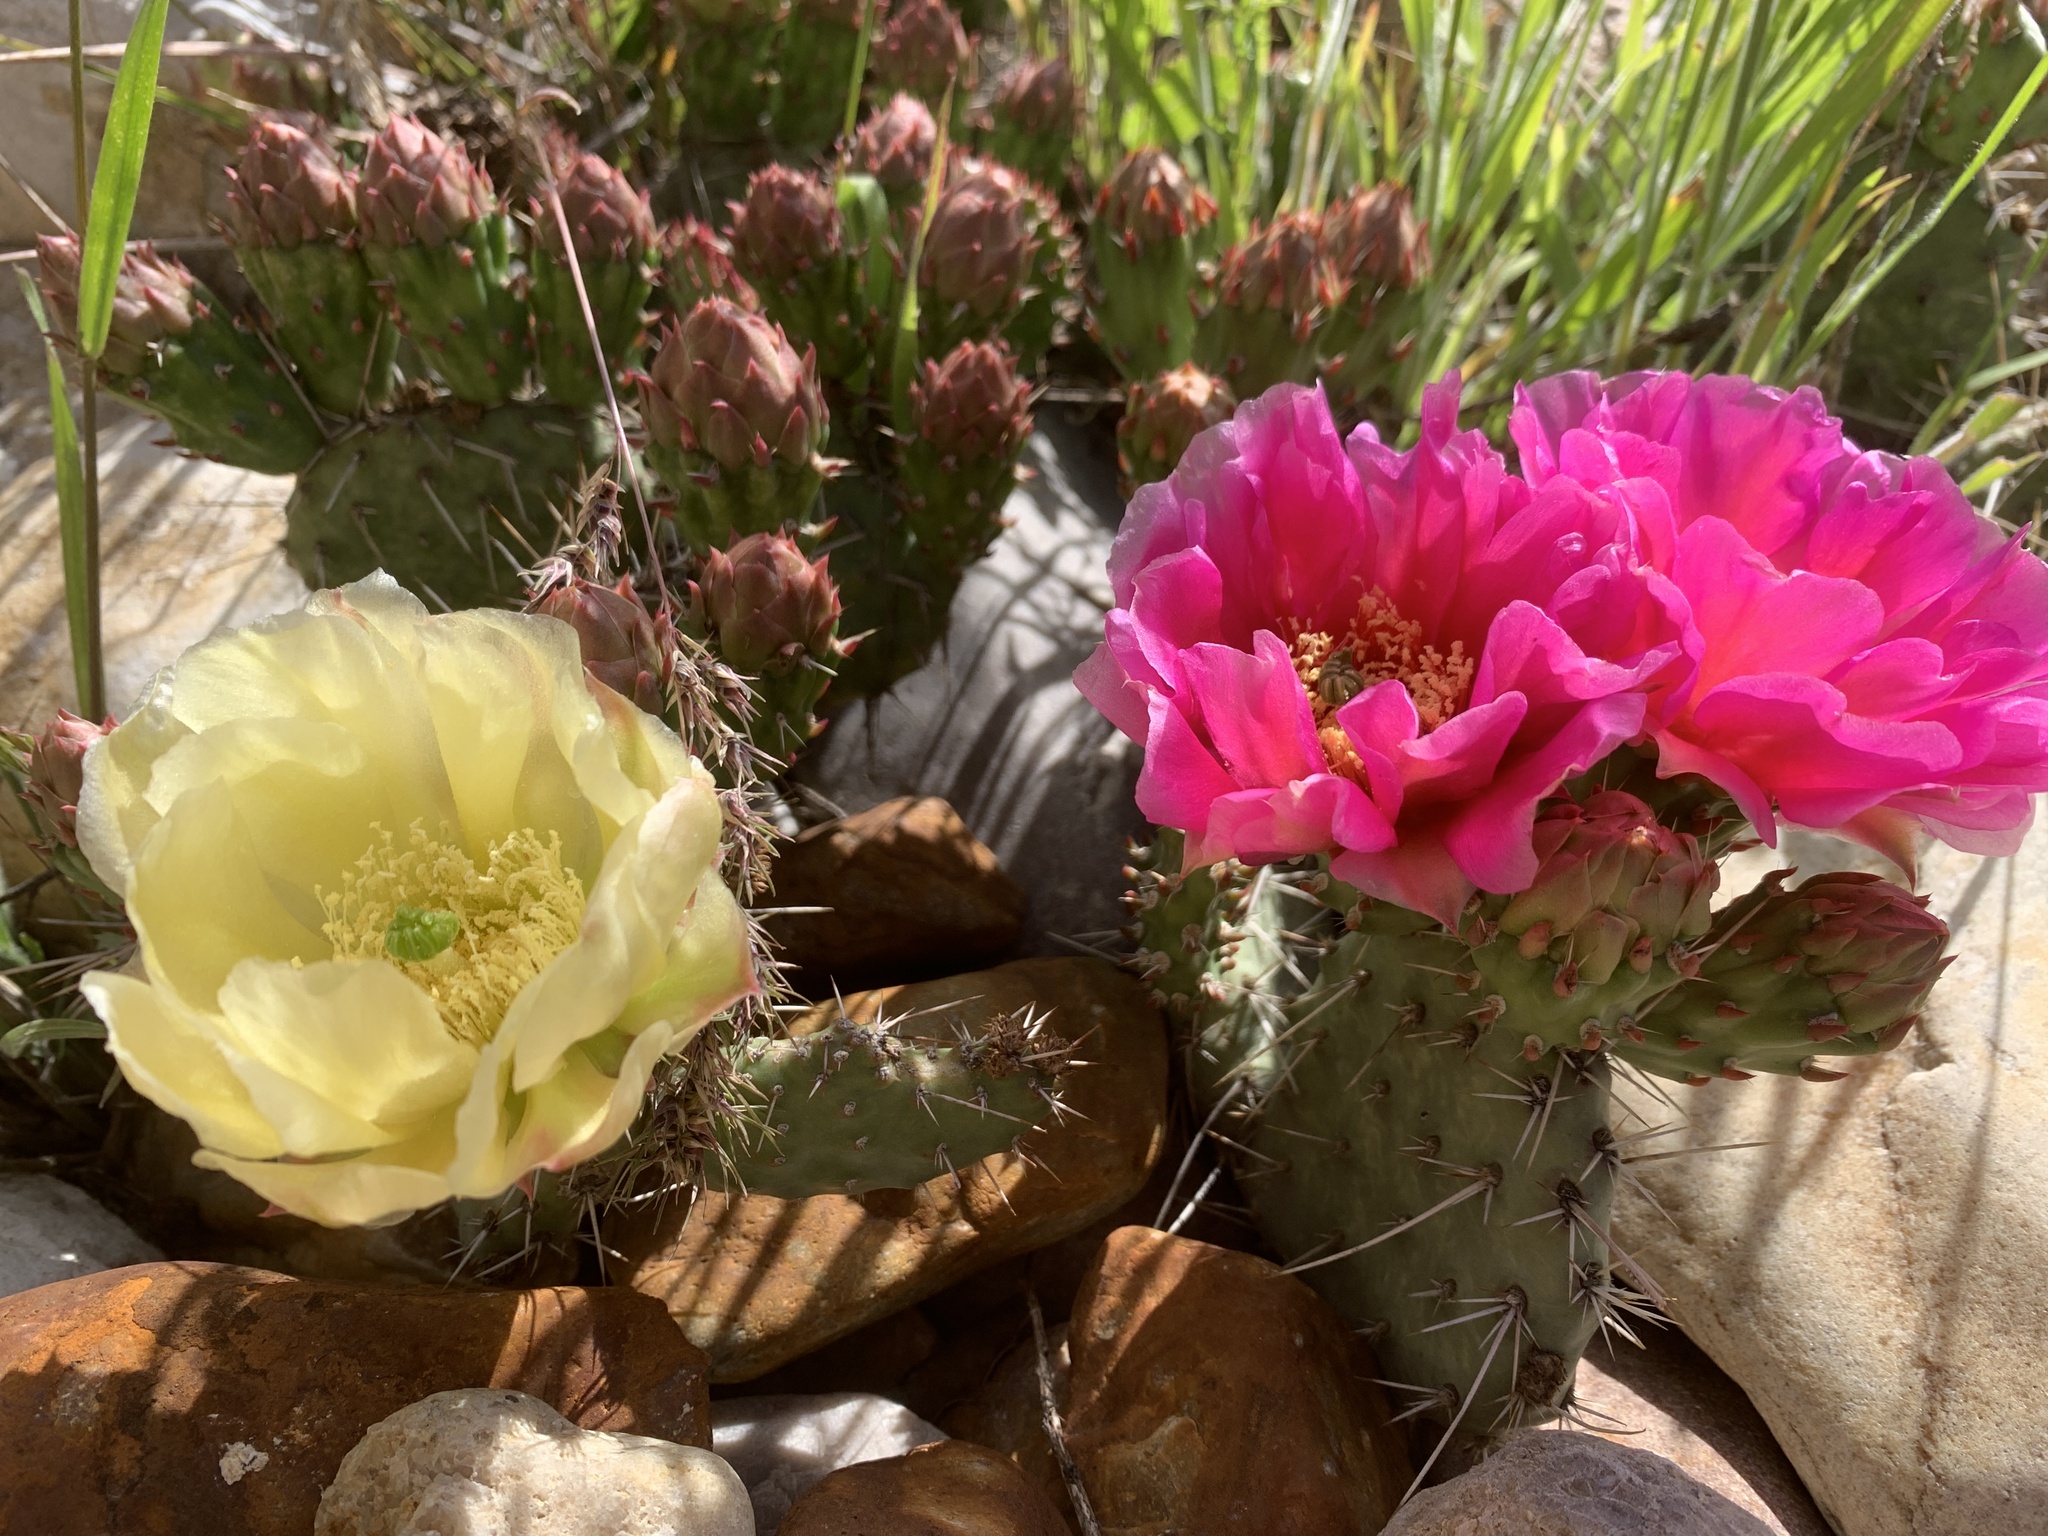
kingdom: Plantae
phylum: Tracheophyta
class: Magnoliopsida
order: Caryophyllales
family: Cactaceae
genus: Opuntia
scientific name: Opuntia polyacantha
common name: Plains prickly-pear
